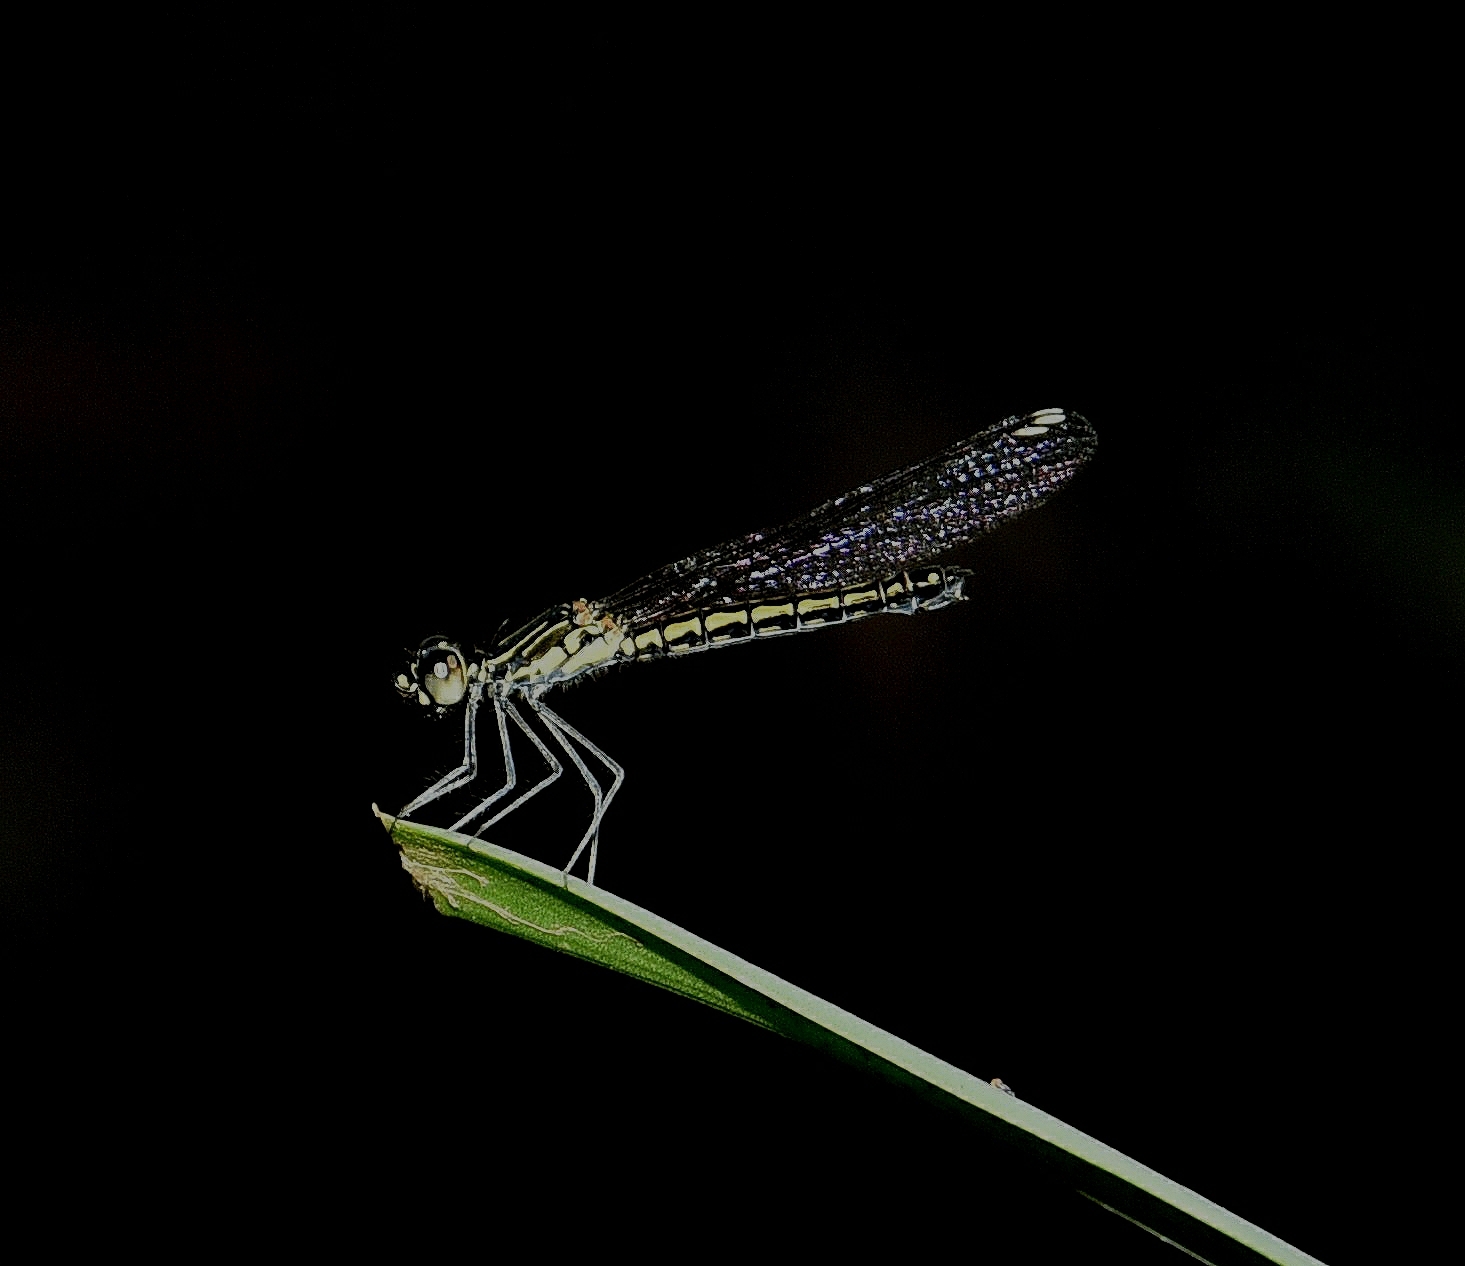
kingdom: Animalia
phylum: Arthropoda
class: Insecta
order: Odonata
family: Chlorocyphidae
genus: Libellago
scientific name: Libellago indica
